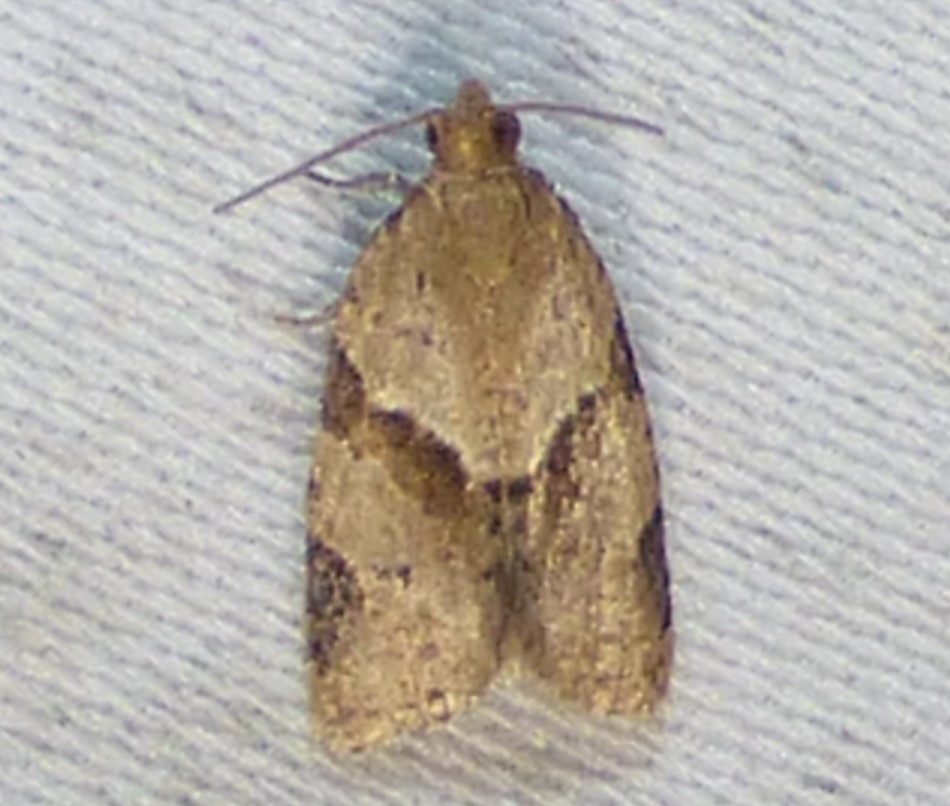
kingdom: Animalia
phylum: Arthropoda
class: Insecta
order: Lepidoptera
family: Tortricidae
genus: Clepsis
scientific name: Clepsis peritana
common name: Garden tortrix
